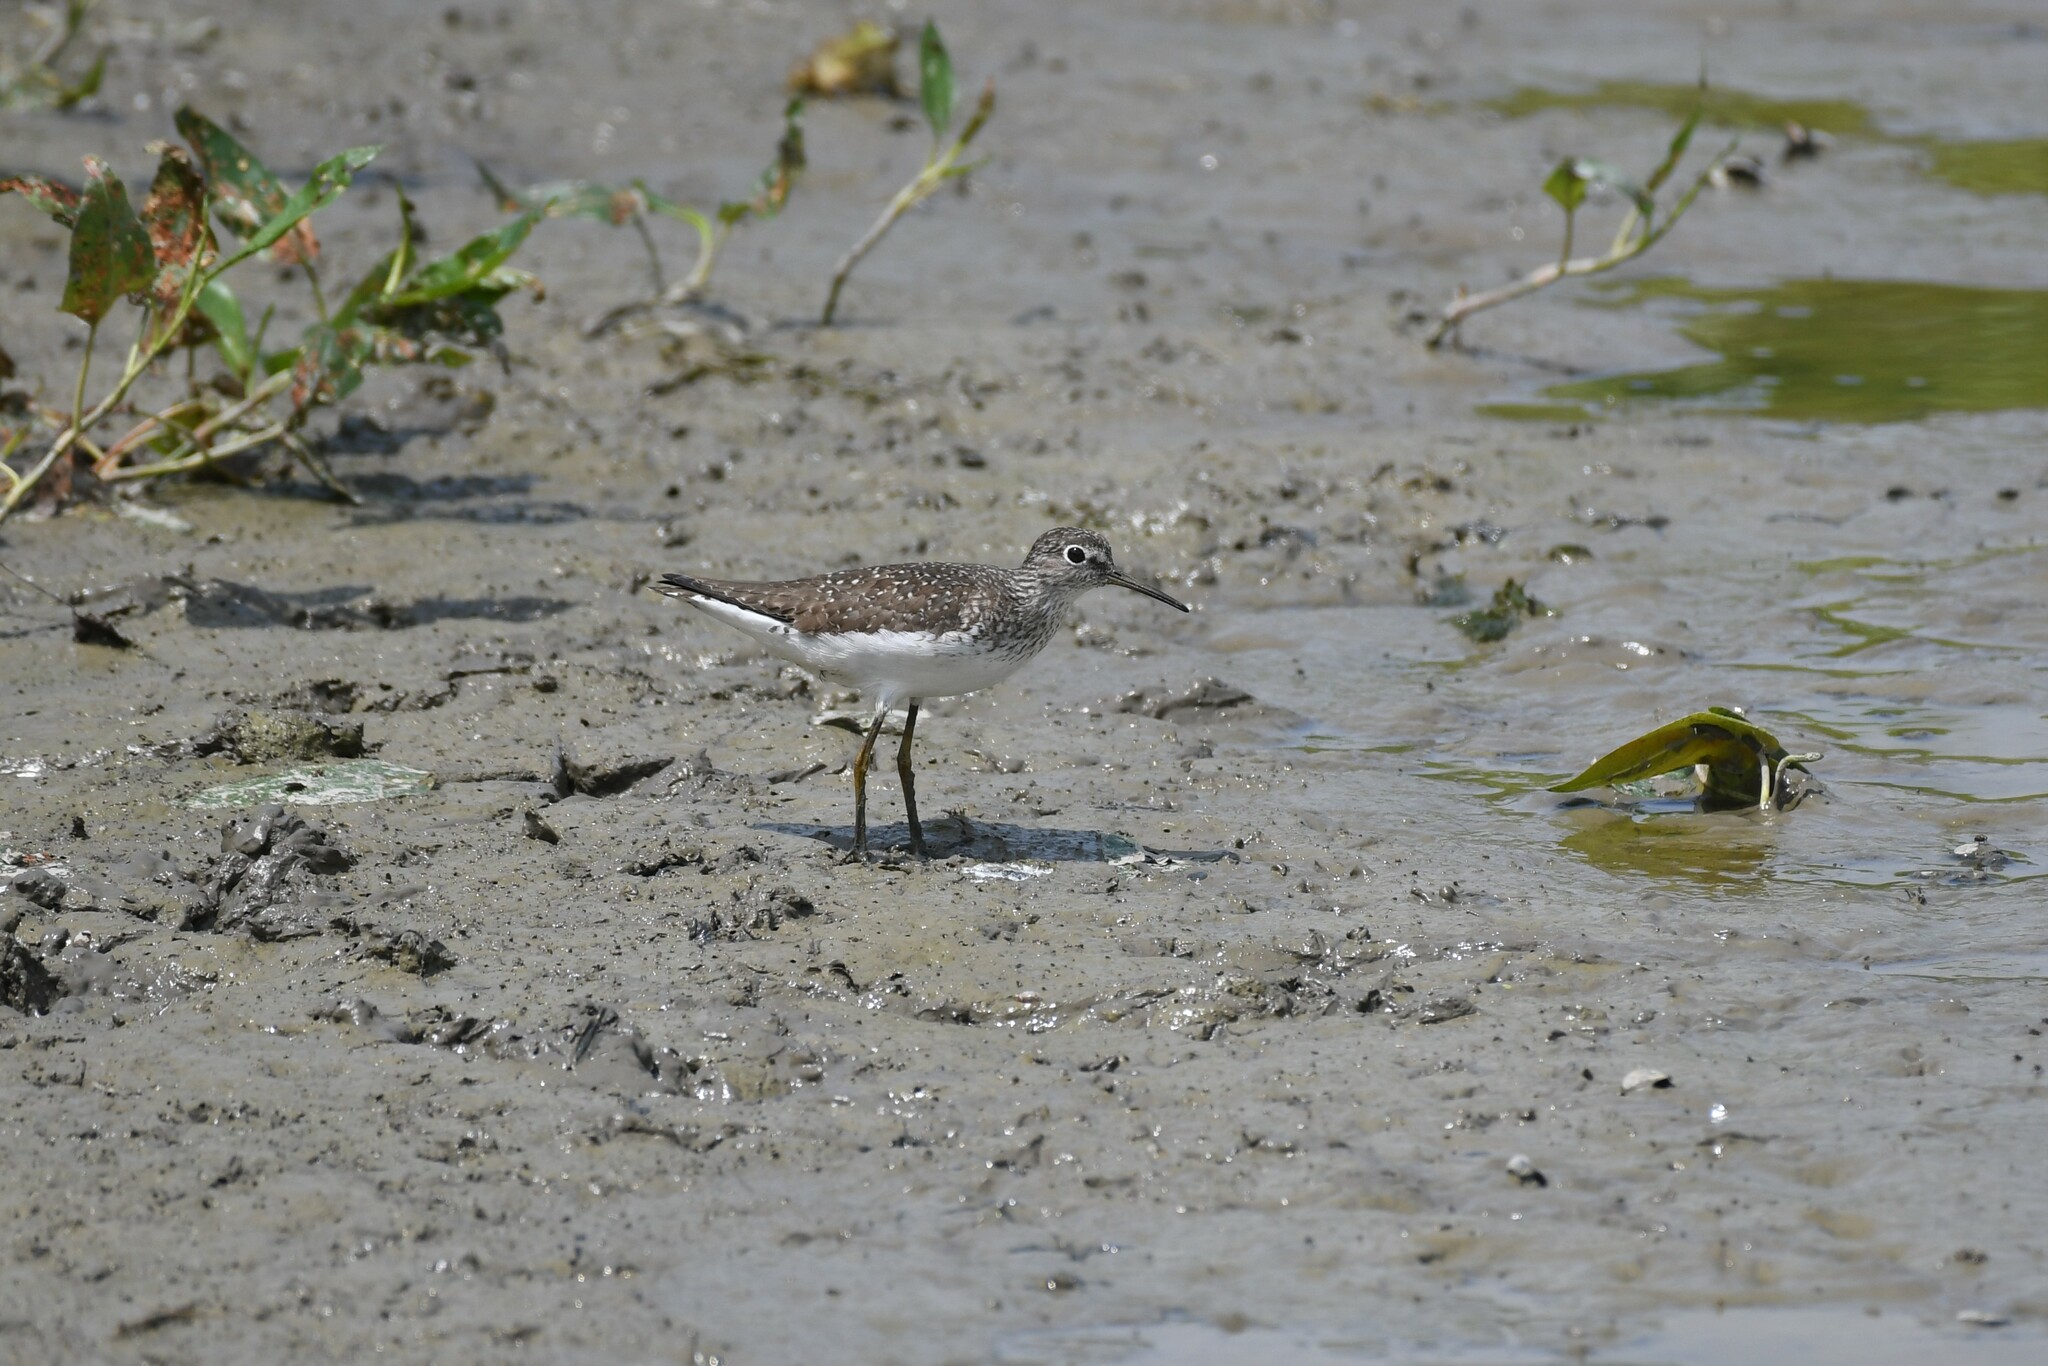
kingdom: Animalia
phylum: Chordata
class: Aves
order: Charadriiformes
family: Scolopacidae
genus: Tringa
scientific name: Tringa solitaria
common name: Solitary sandpiper
